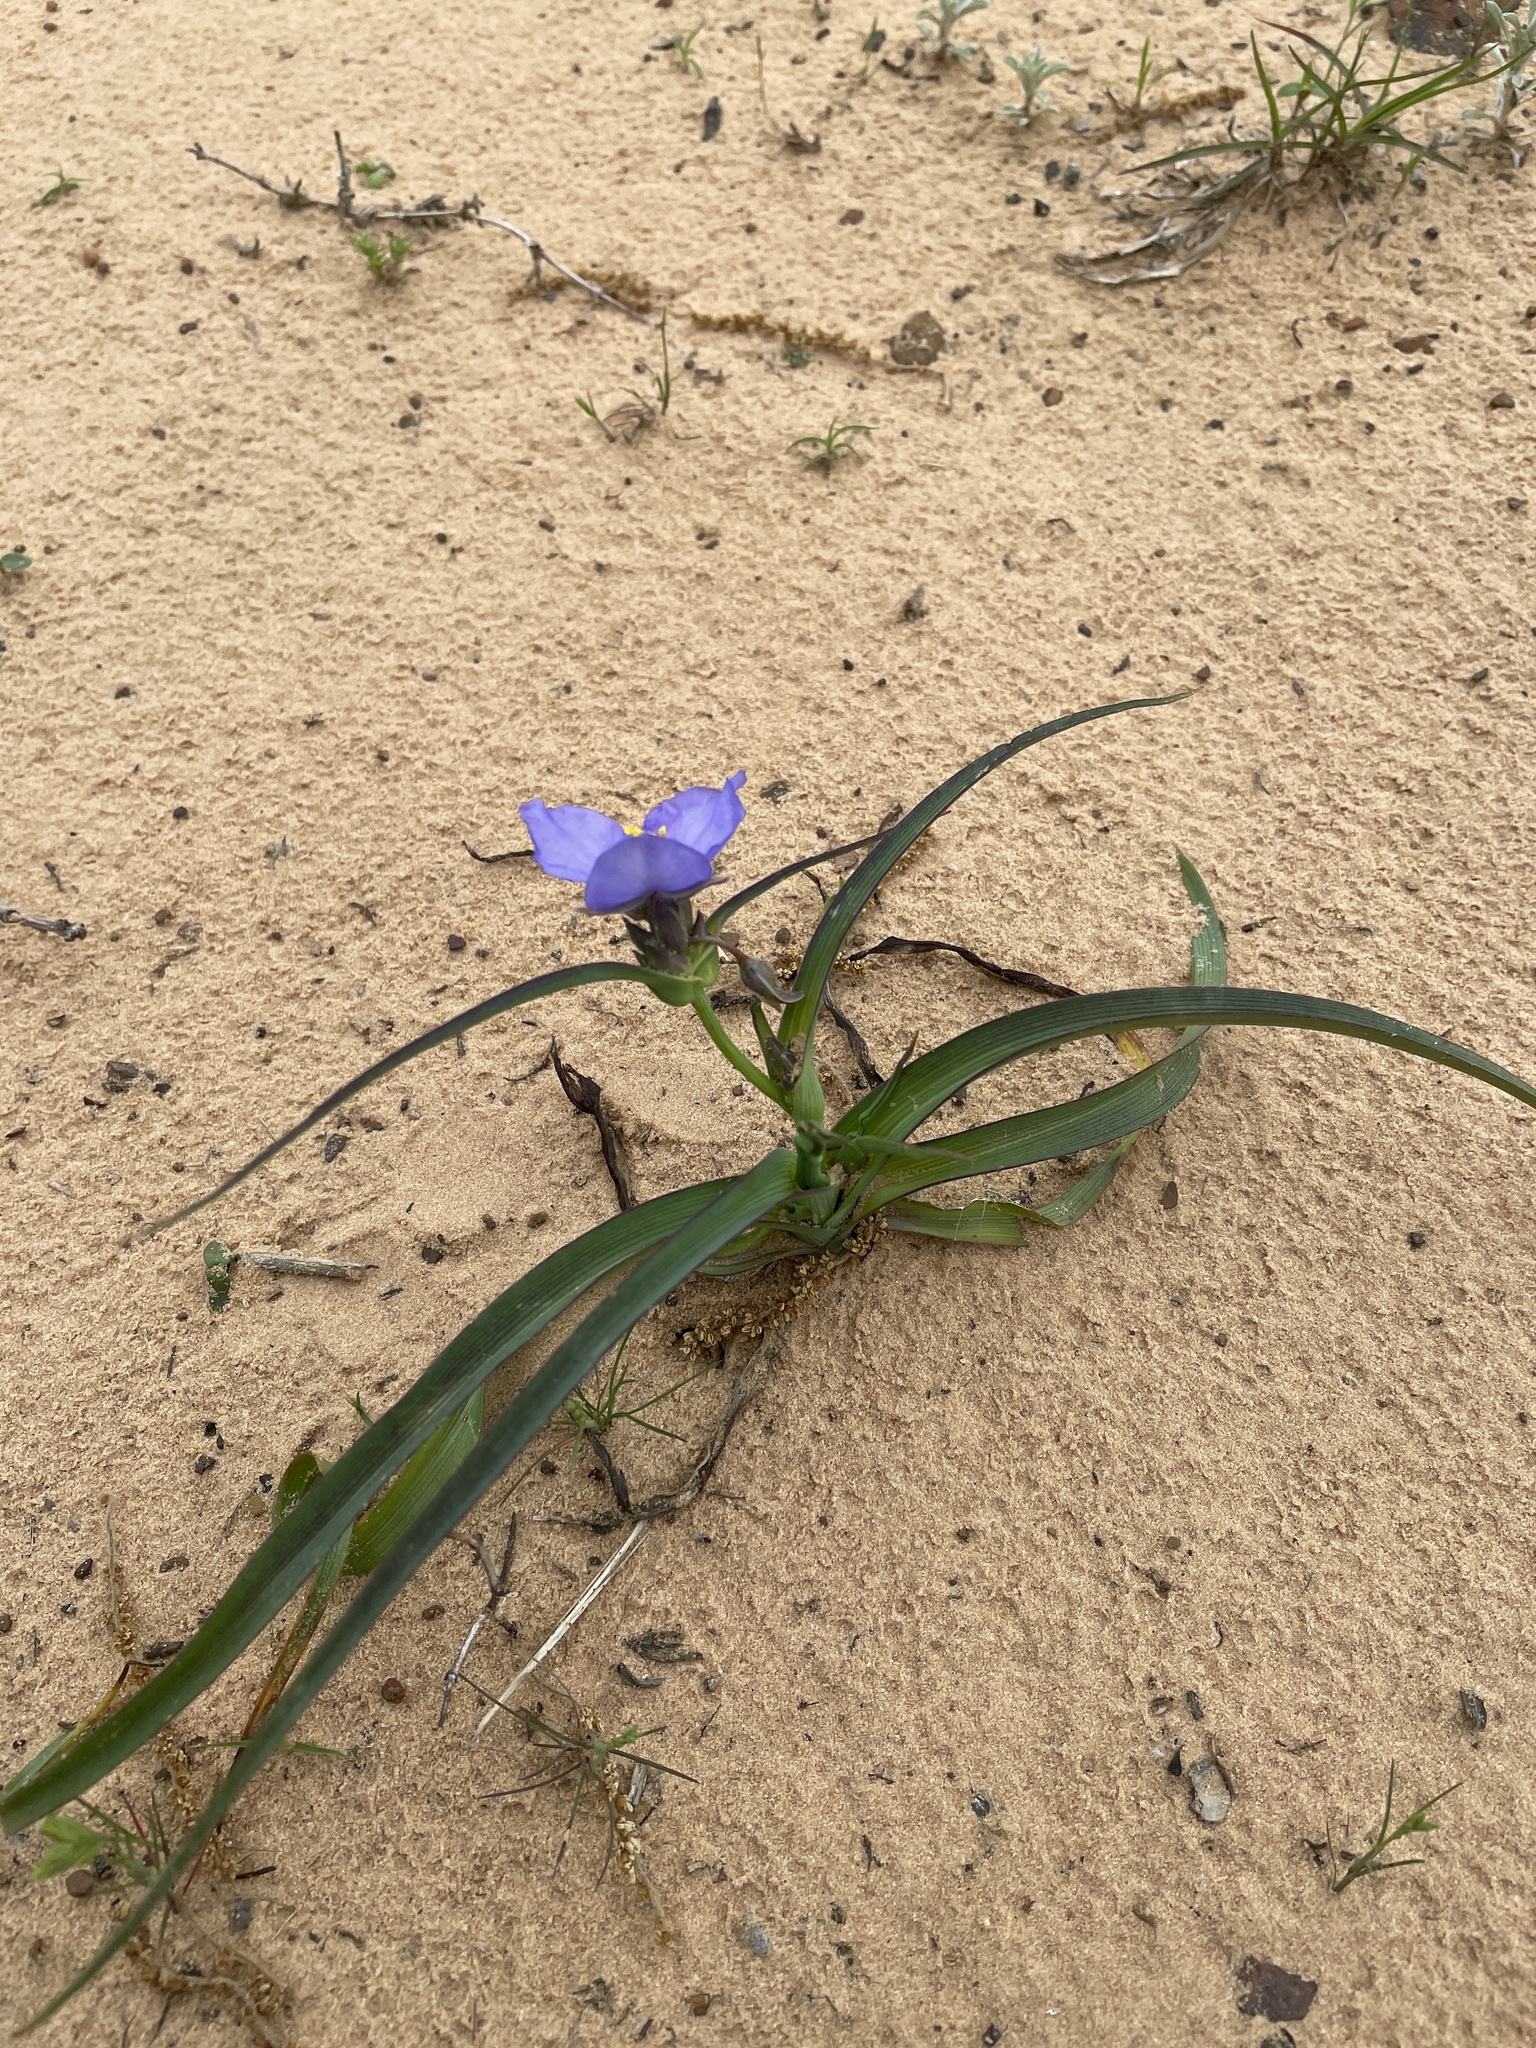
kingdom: Plantae
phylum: Tracheophyta
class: Liliopsida
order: Commelinales
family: Commelinaceae
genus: Tradescantia
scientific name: Tradescantia occidentalis
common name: Prairie spiderwort
